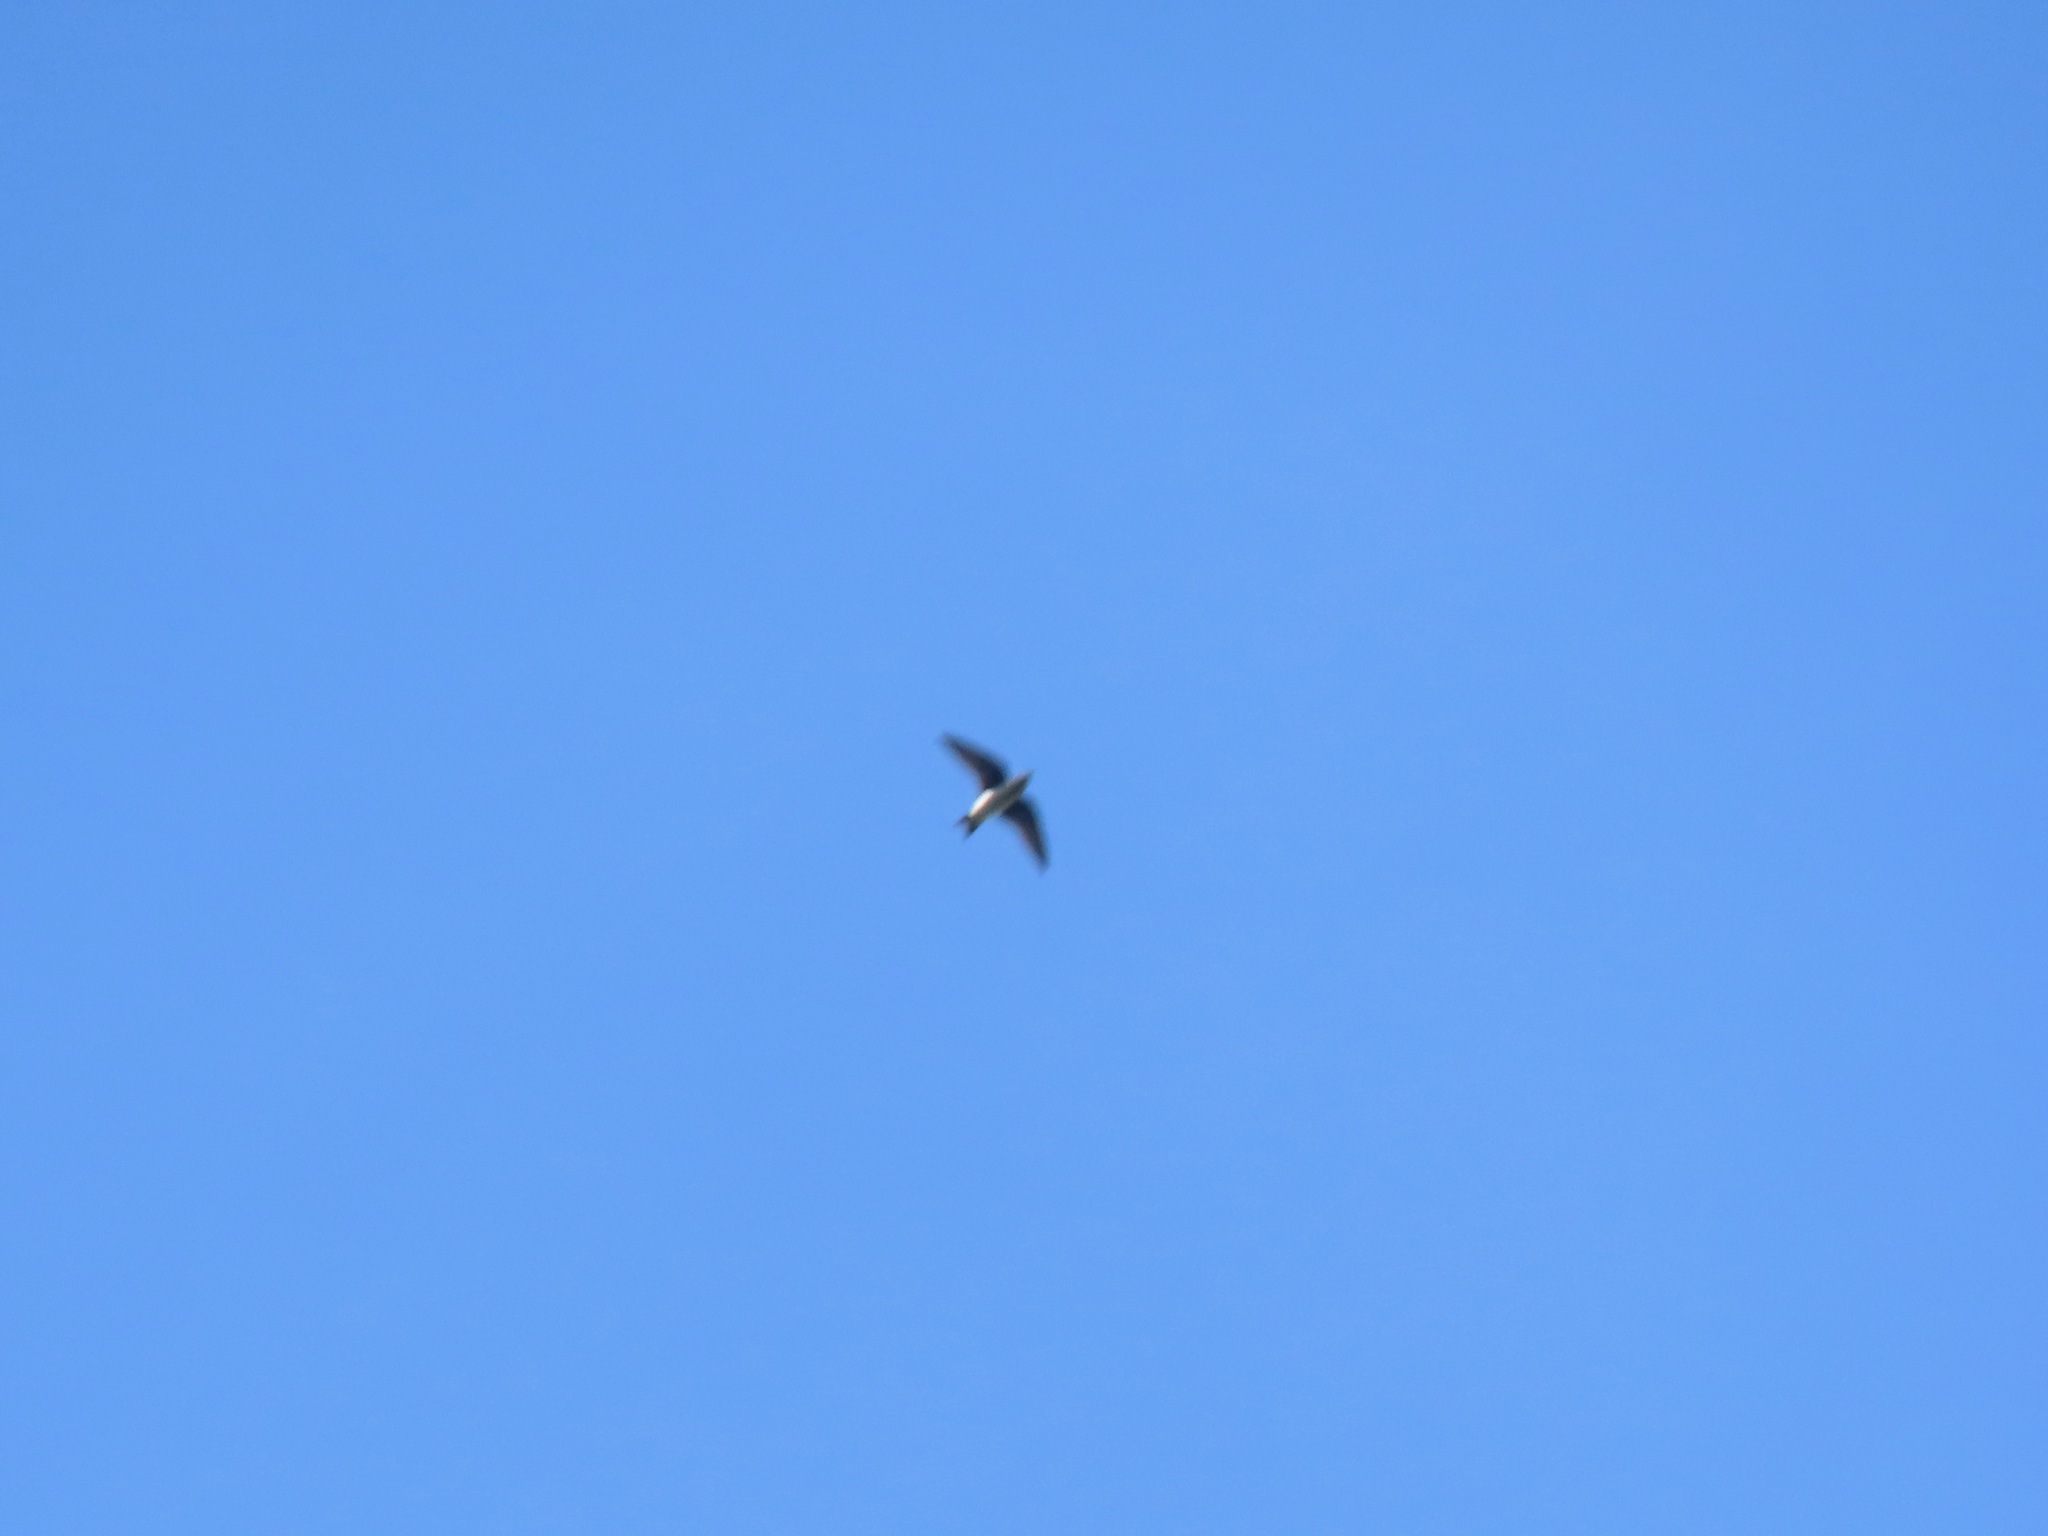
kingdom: Animalia
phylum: Chordata
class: Aves
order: Passeriformes
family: Hirundinidae
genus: Progne
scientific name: Progne subis
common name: Purple martin
